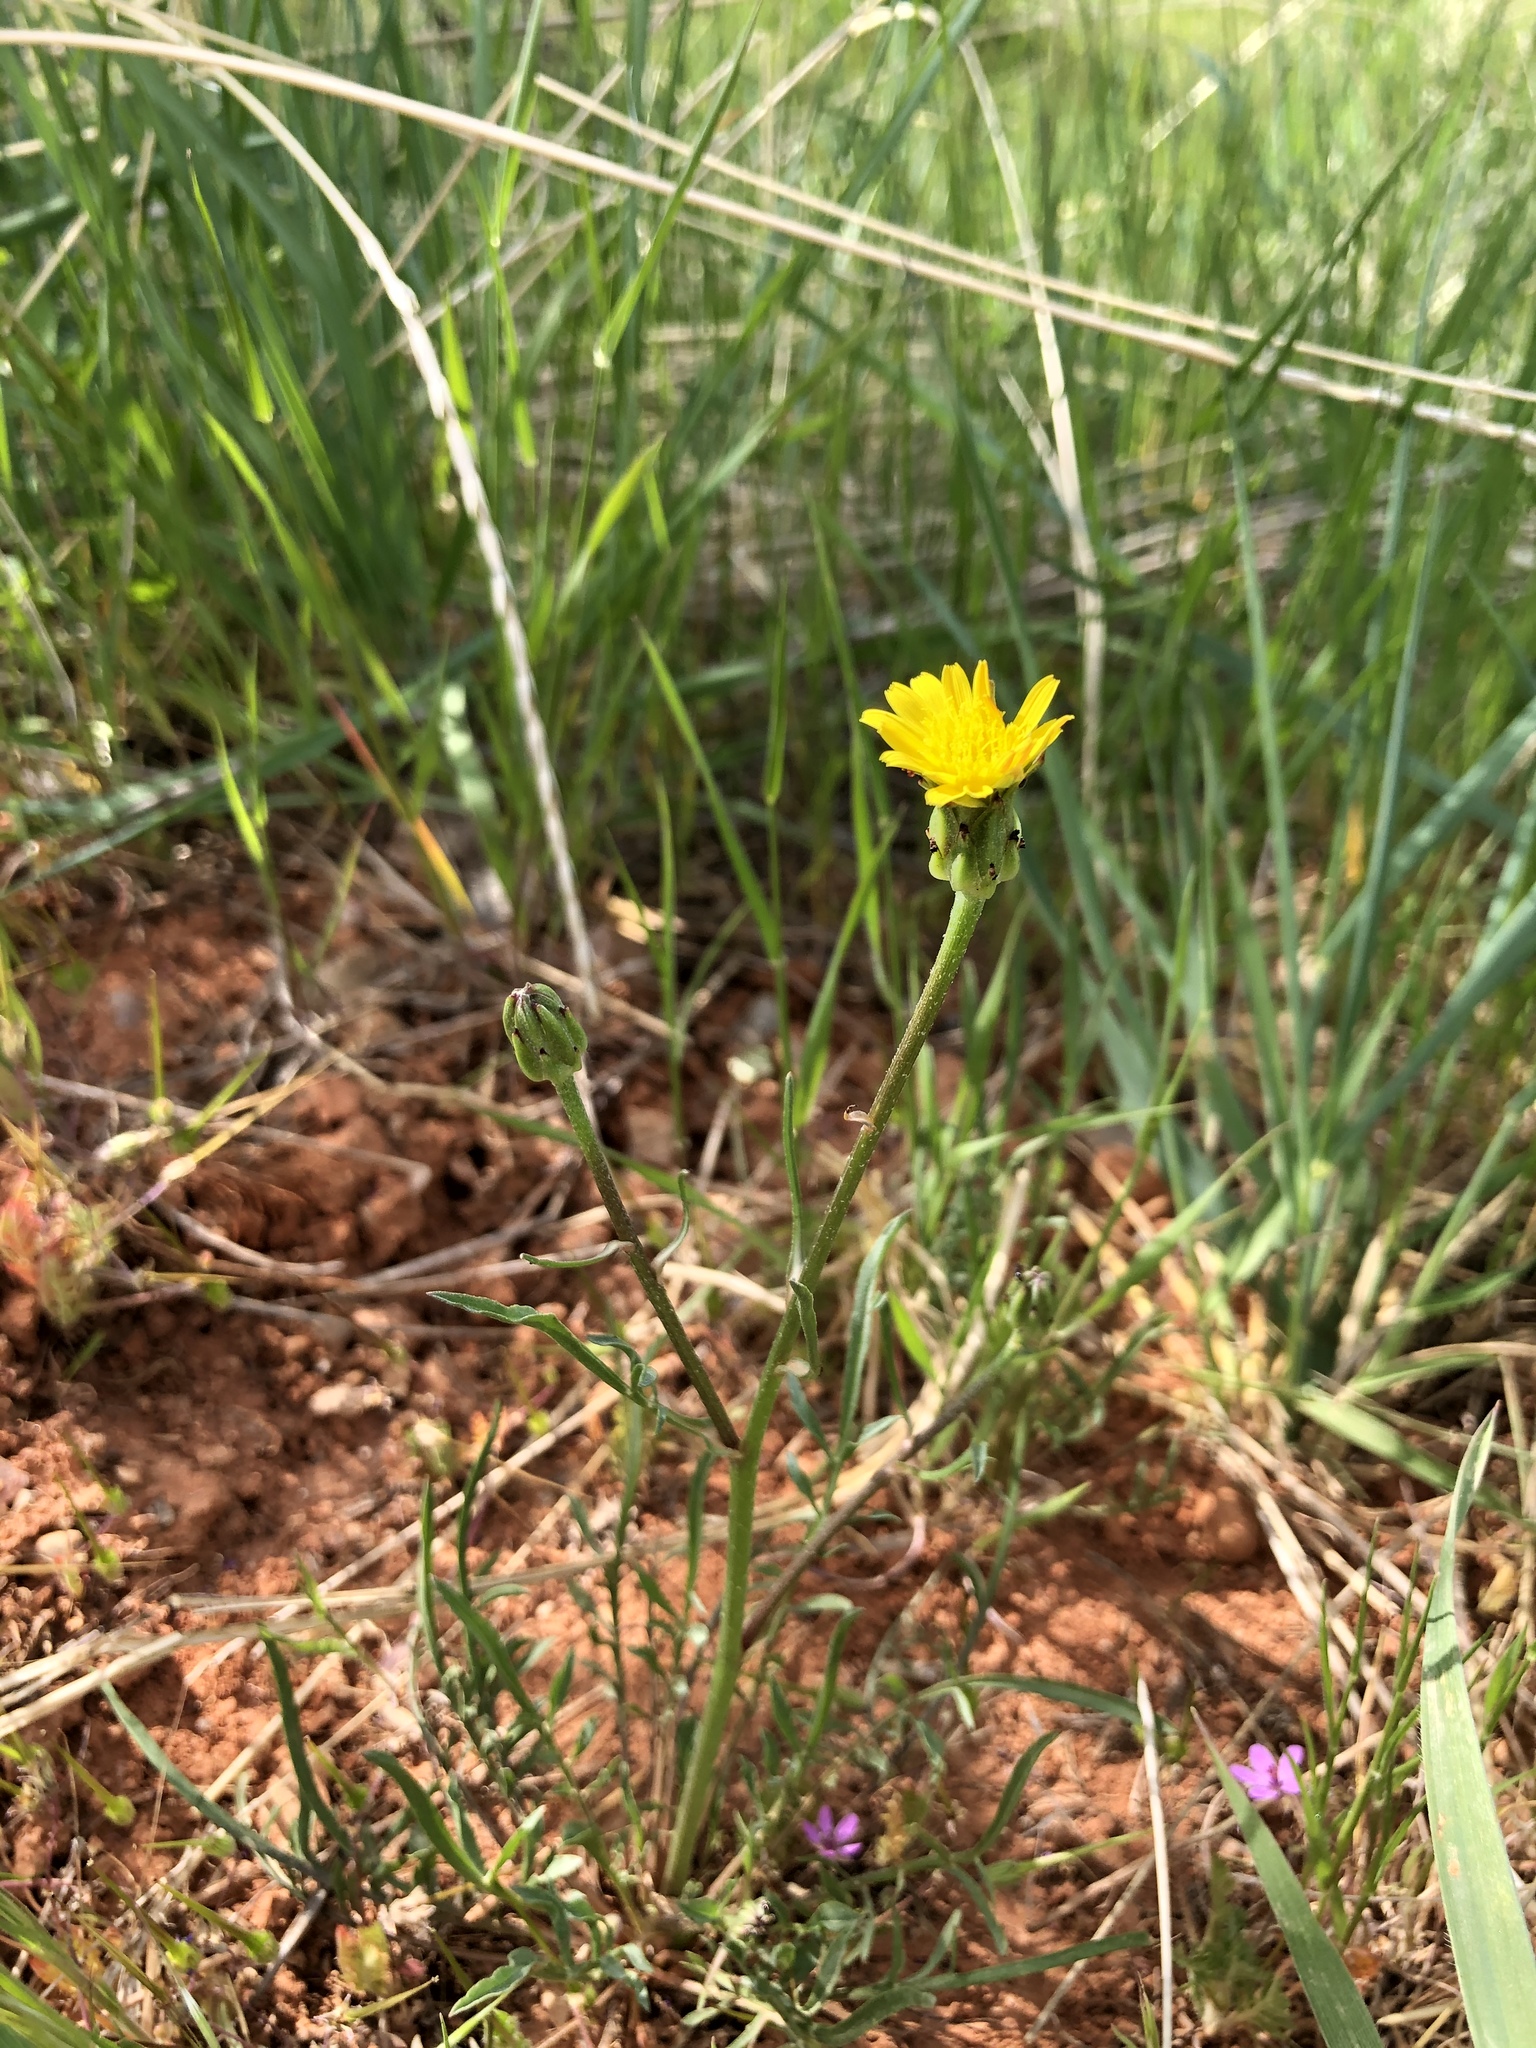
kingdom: Plantae
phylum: Tracheophyta
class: Magnoliopsida
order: Asterales
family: Asteraceae
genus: Scorzonera
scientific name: Scorzonera laciniata
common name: Cutleaf vipergrass
